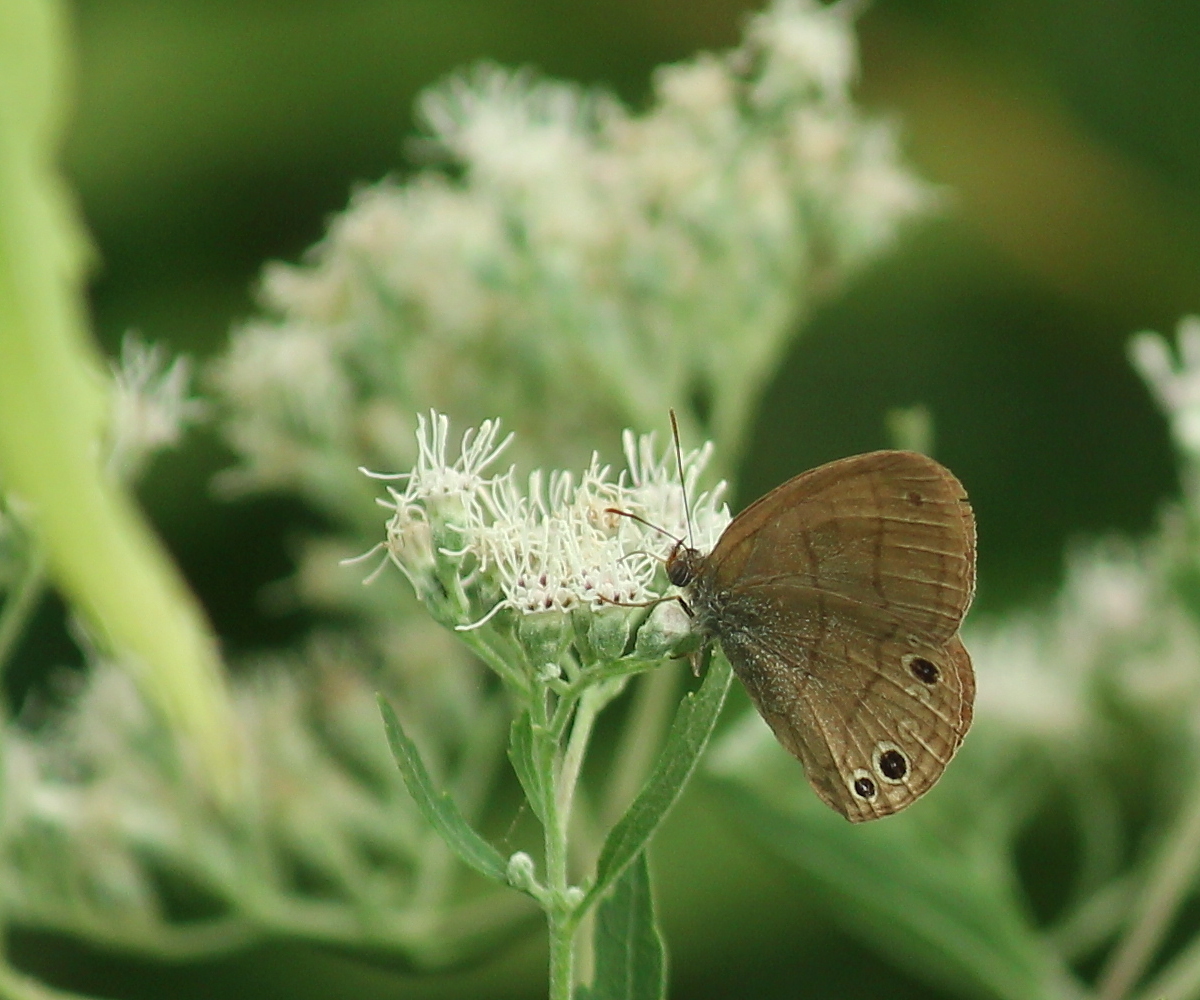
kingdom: Animalia
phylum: Arthropoda
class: Insecta
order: Lepidoptera
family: Nymphalidae
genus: Hermeuptychia
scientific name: Hermeuptychia hermes
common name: Hermes satyr
